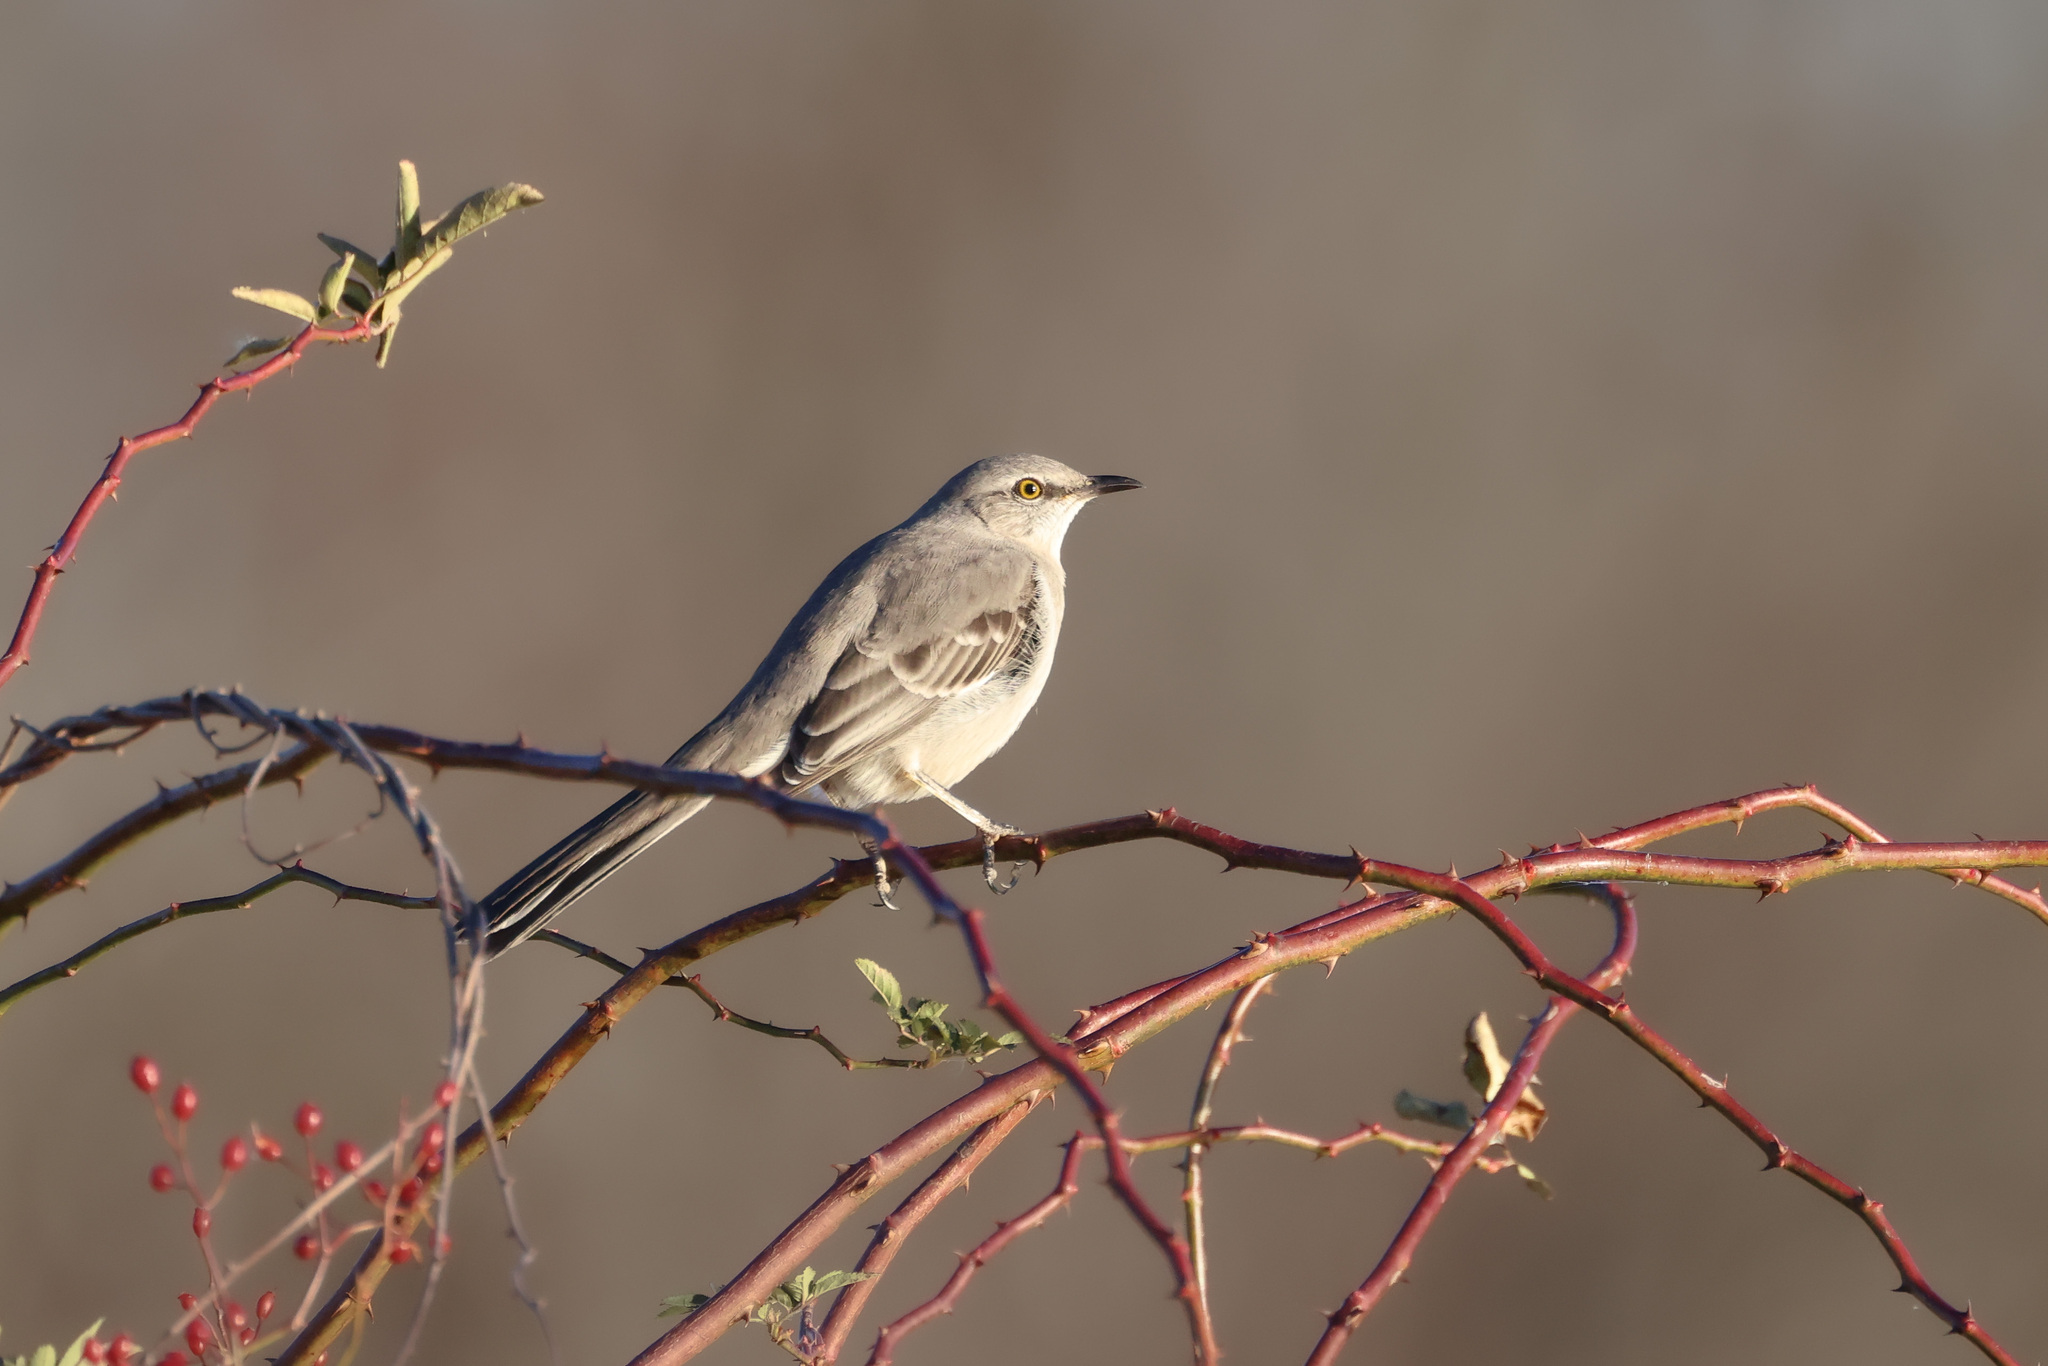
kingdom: Animalia
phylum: Chordata
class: Aves
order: Passeriformes
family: Mimidae
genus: Mimus
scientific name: Mimus polyglottos
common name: Northern mockingbird
